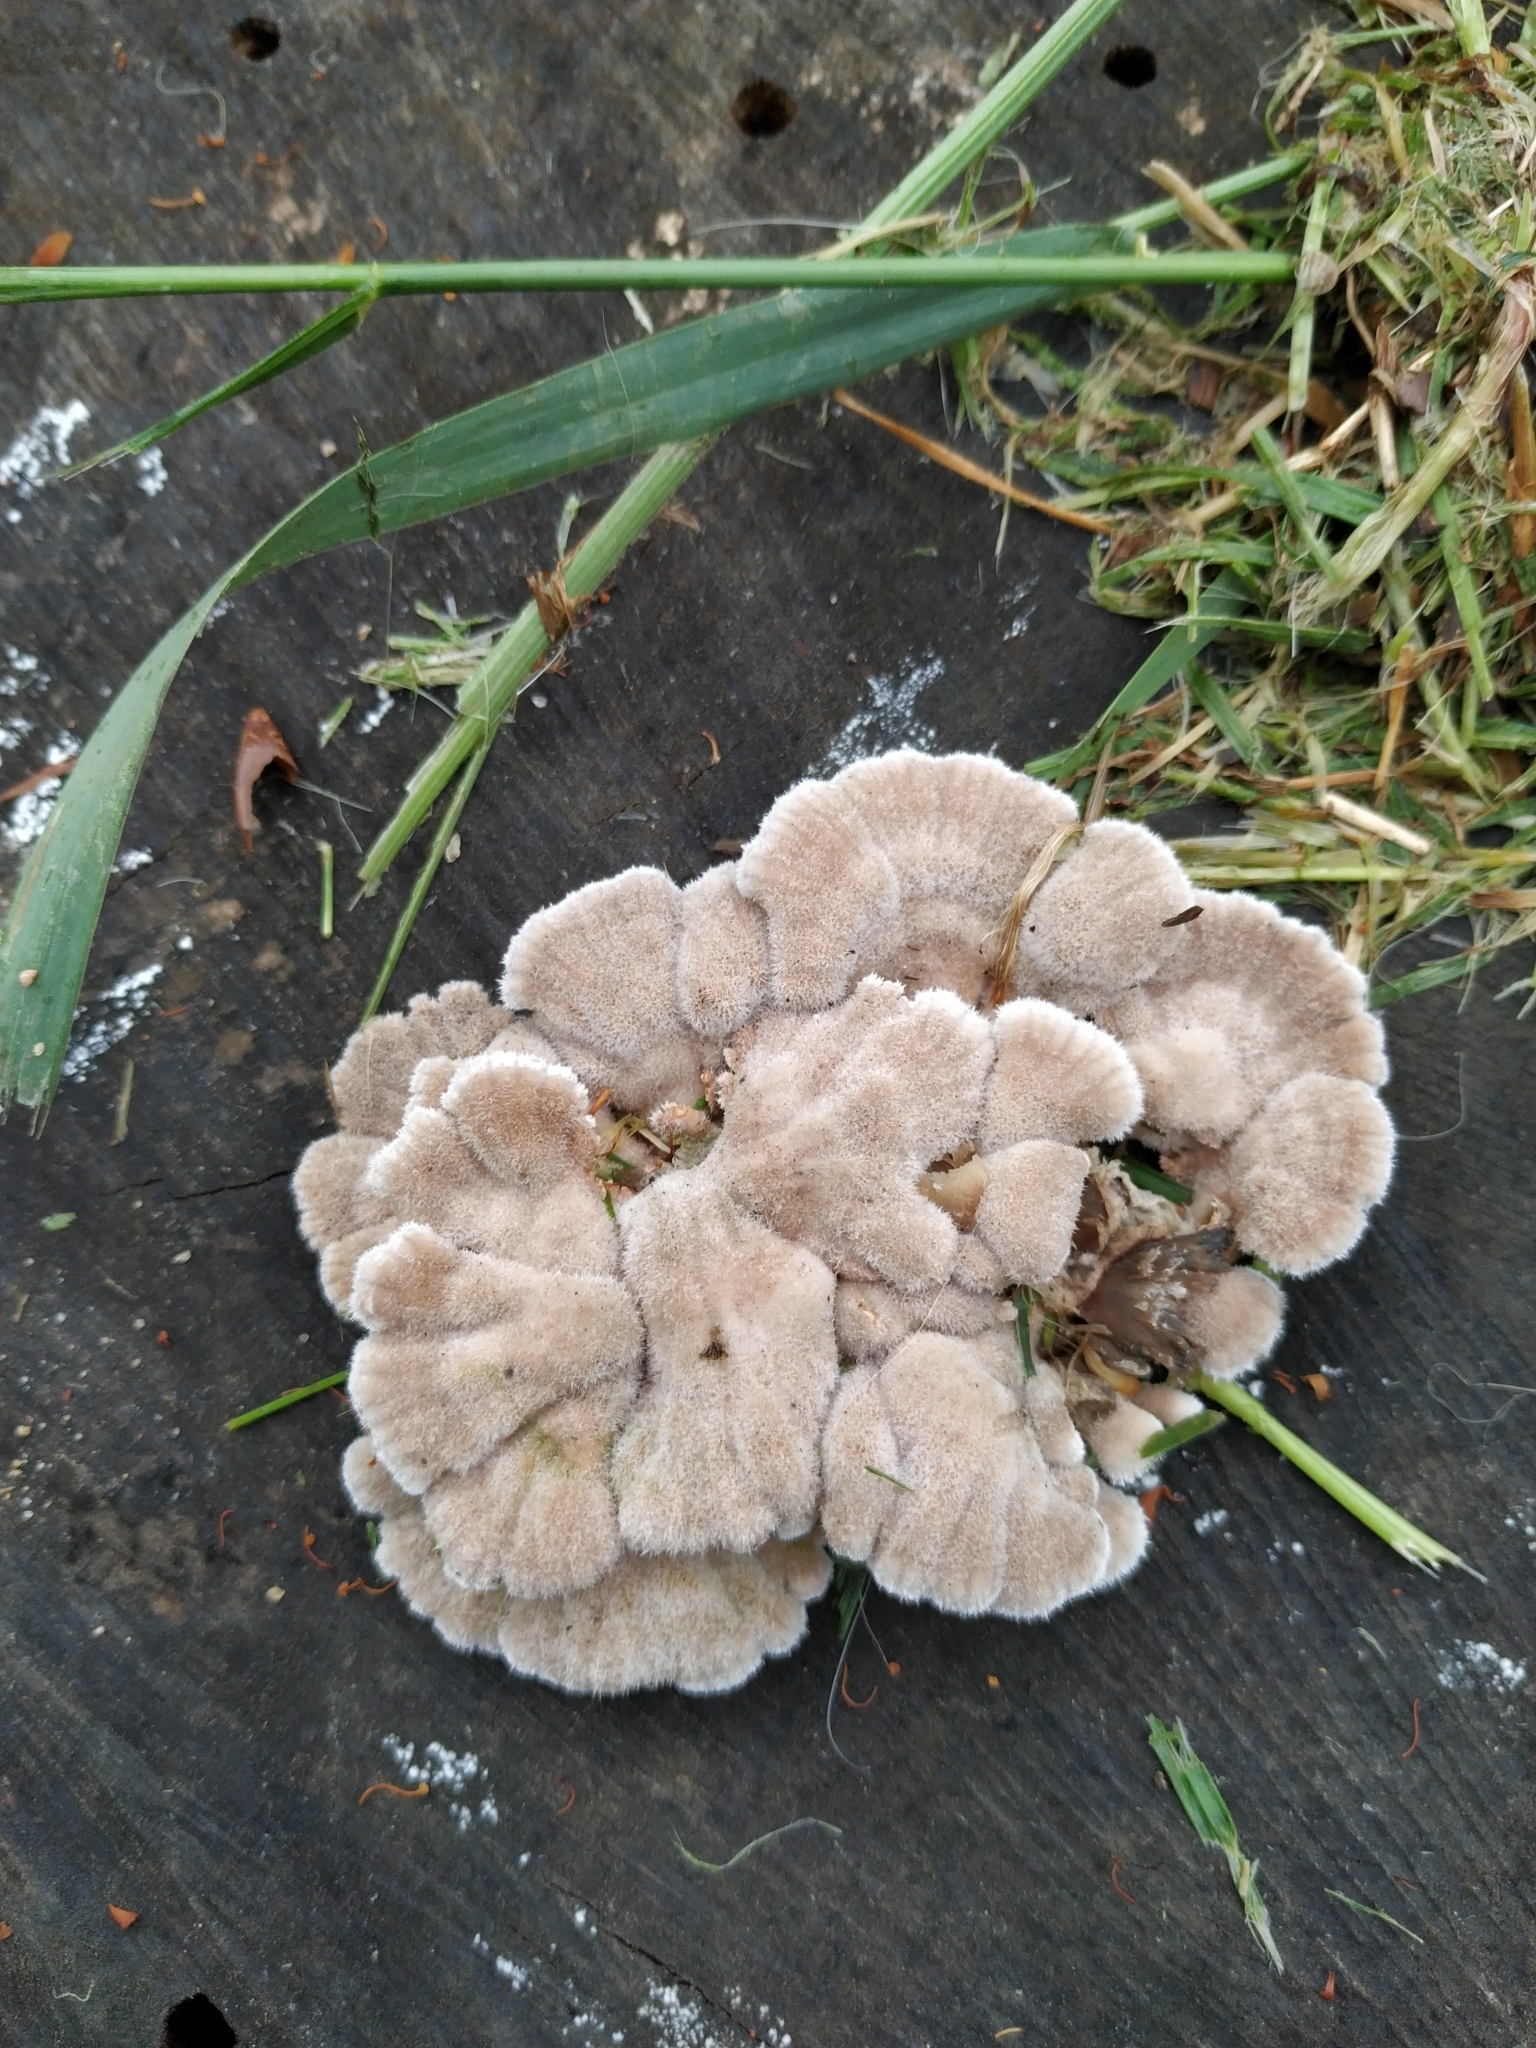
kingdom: Fungi
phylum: Basidiomycota
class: Agaricomycetes
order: Agaricales
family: Schizophyllaceae
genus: Schizophyllum
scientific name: Schizophyllum commune
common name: Common porecrust
